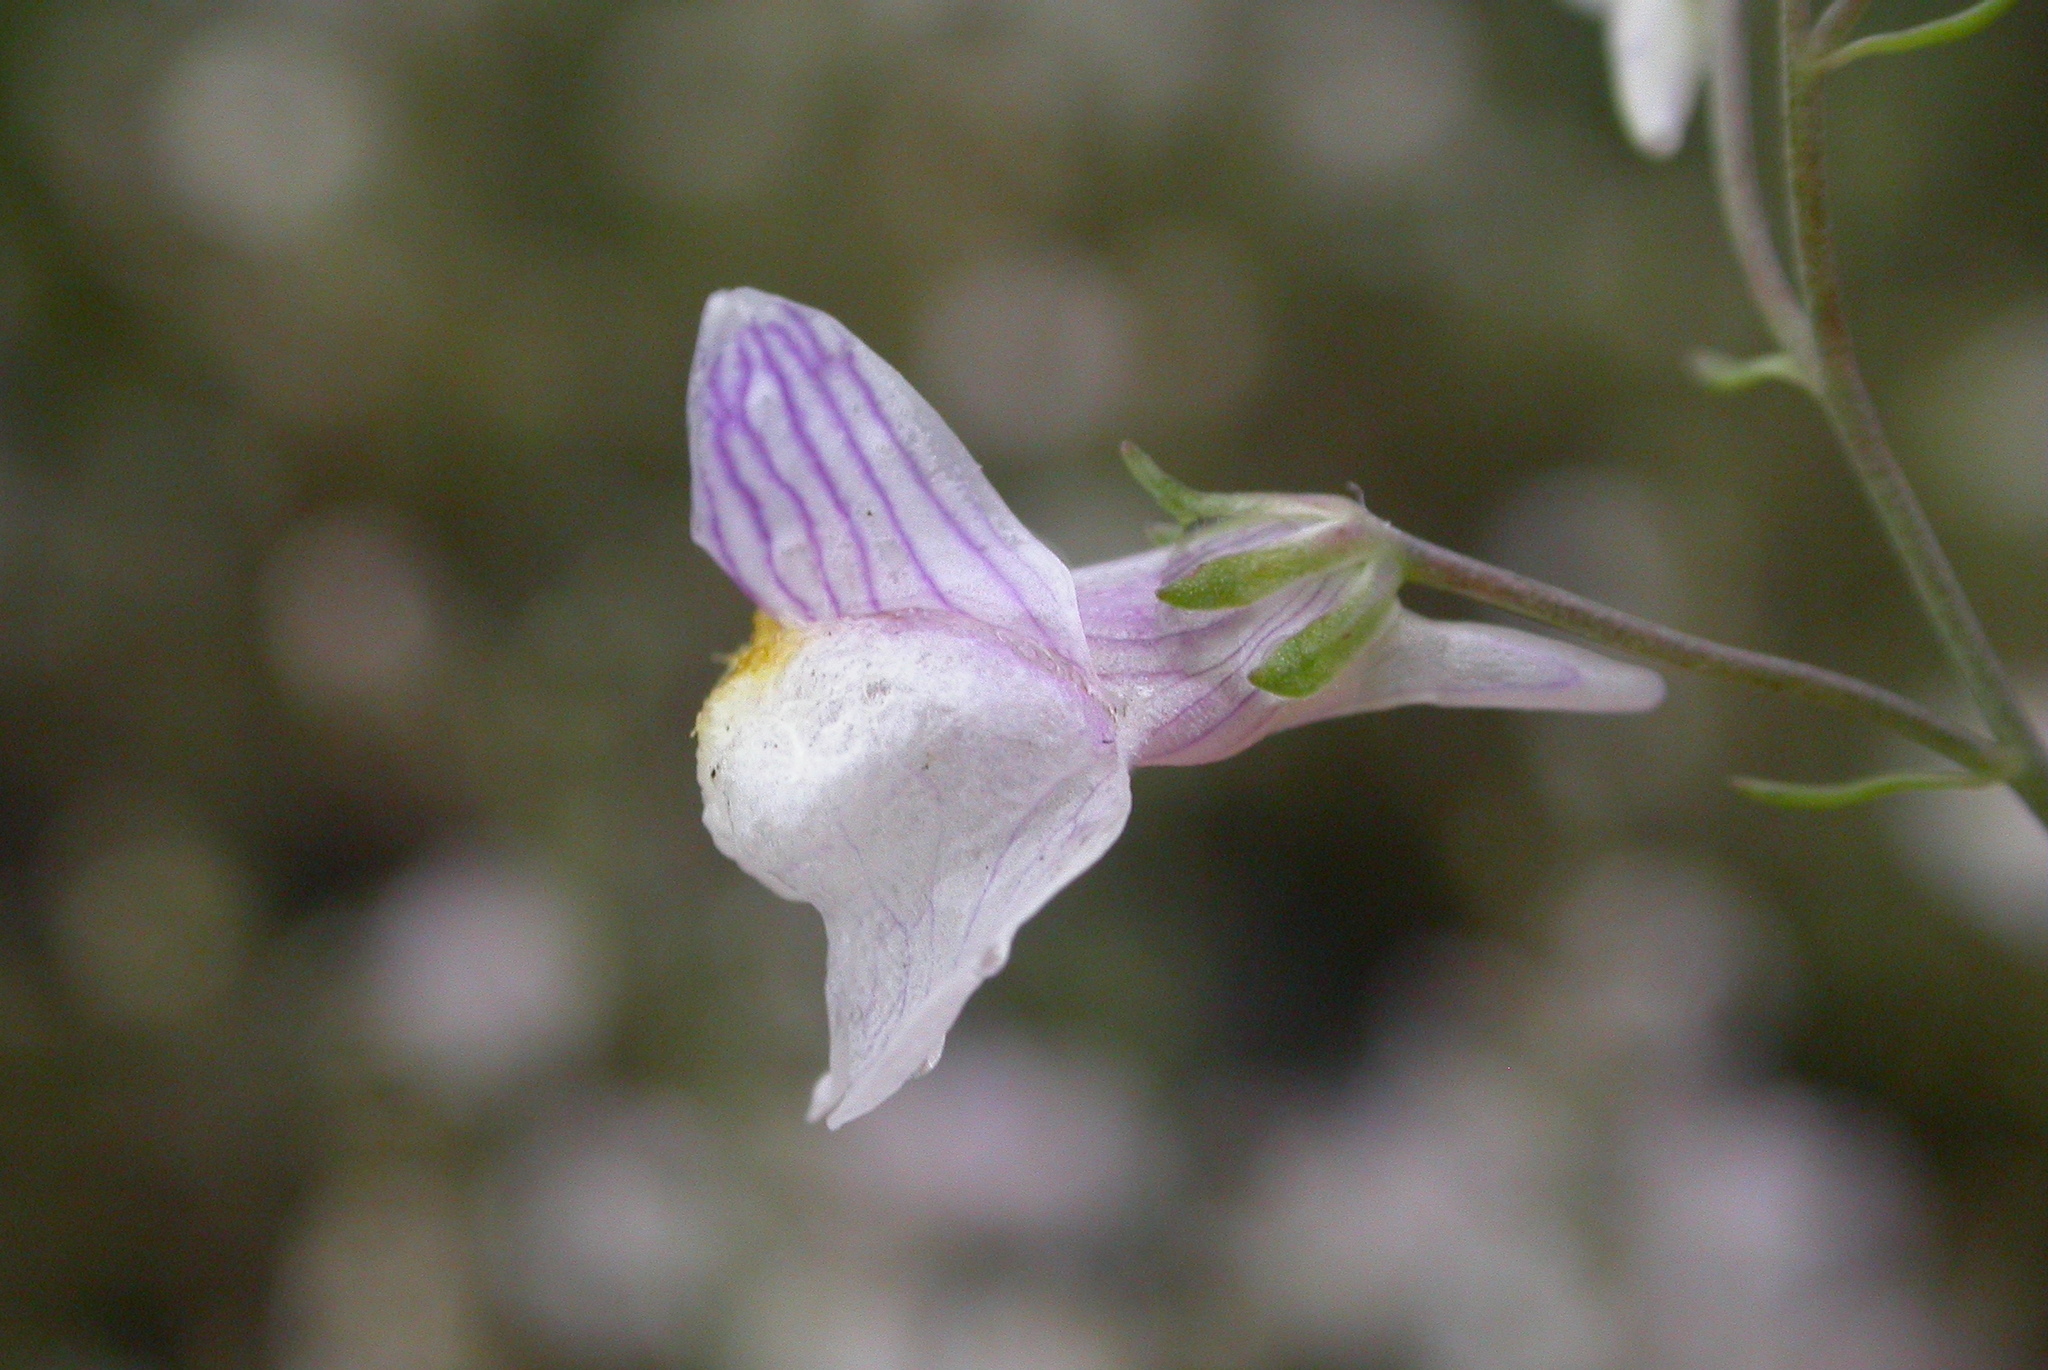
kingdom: Plantae
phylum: Tracheophyta
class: Magnoliopsida
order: Lamiales
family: Plantaginaceae
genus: Linaria
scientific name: Linaria repens
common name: Pale toadflax
